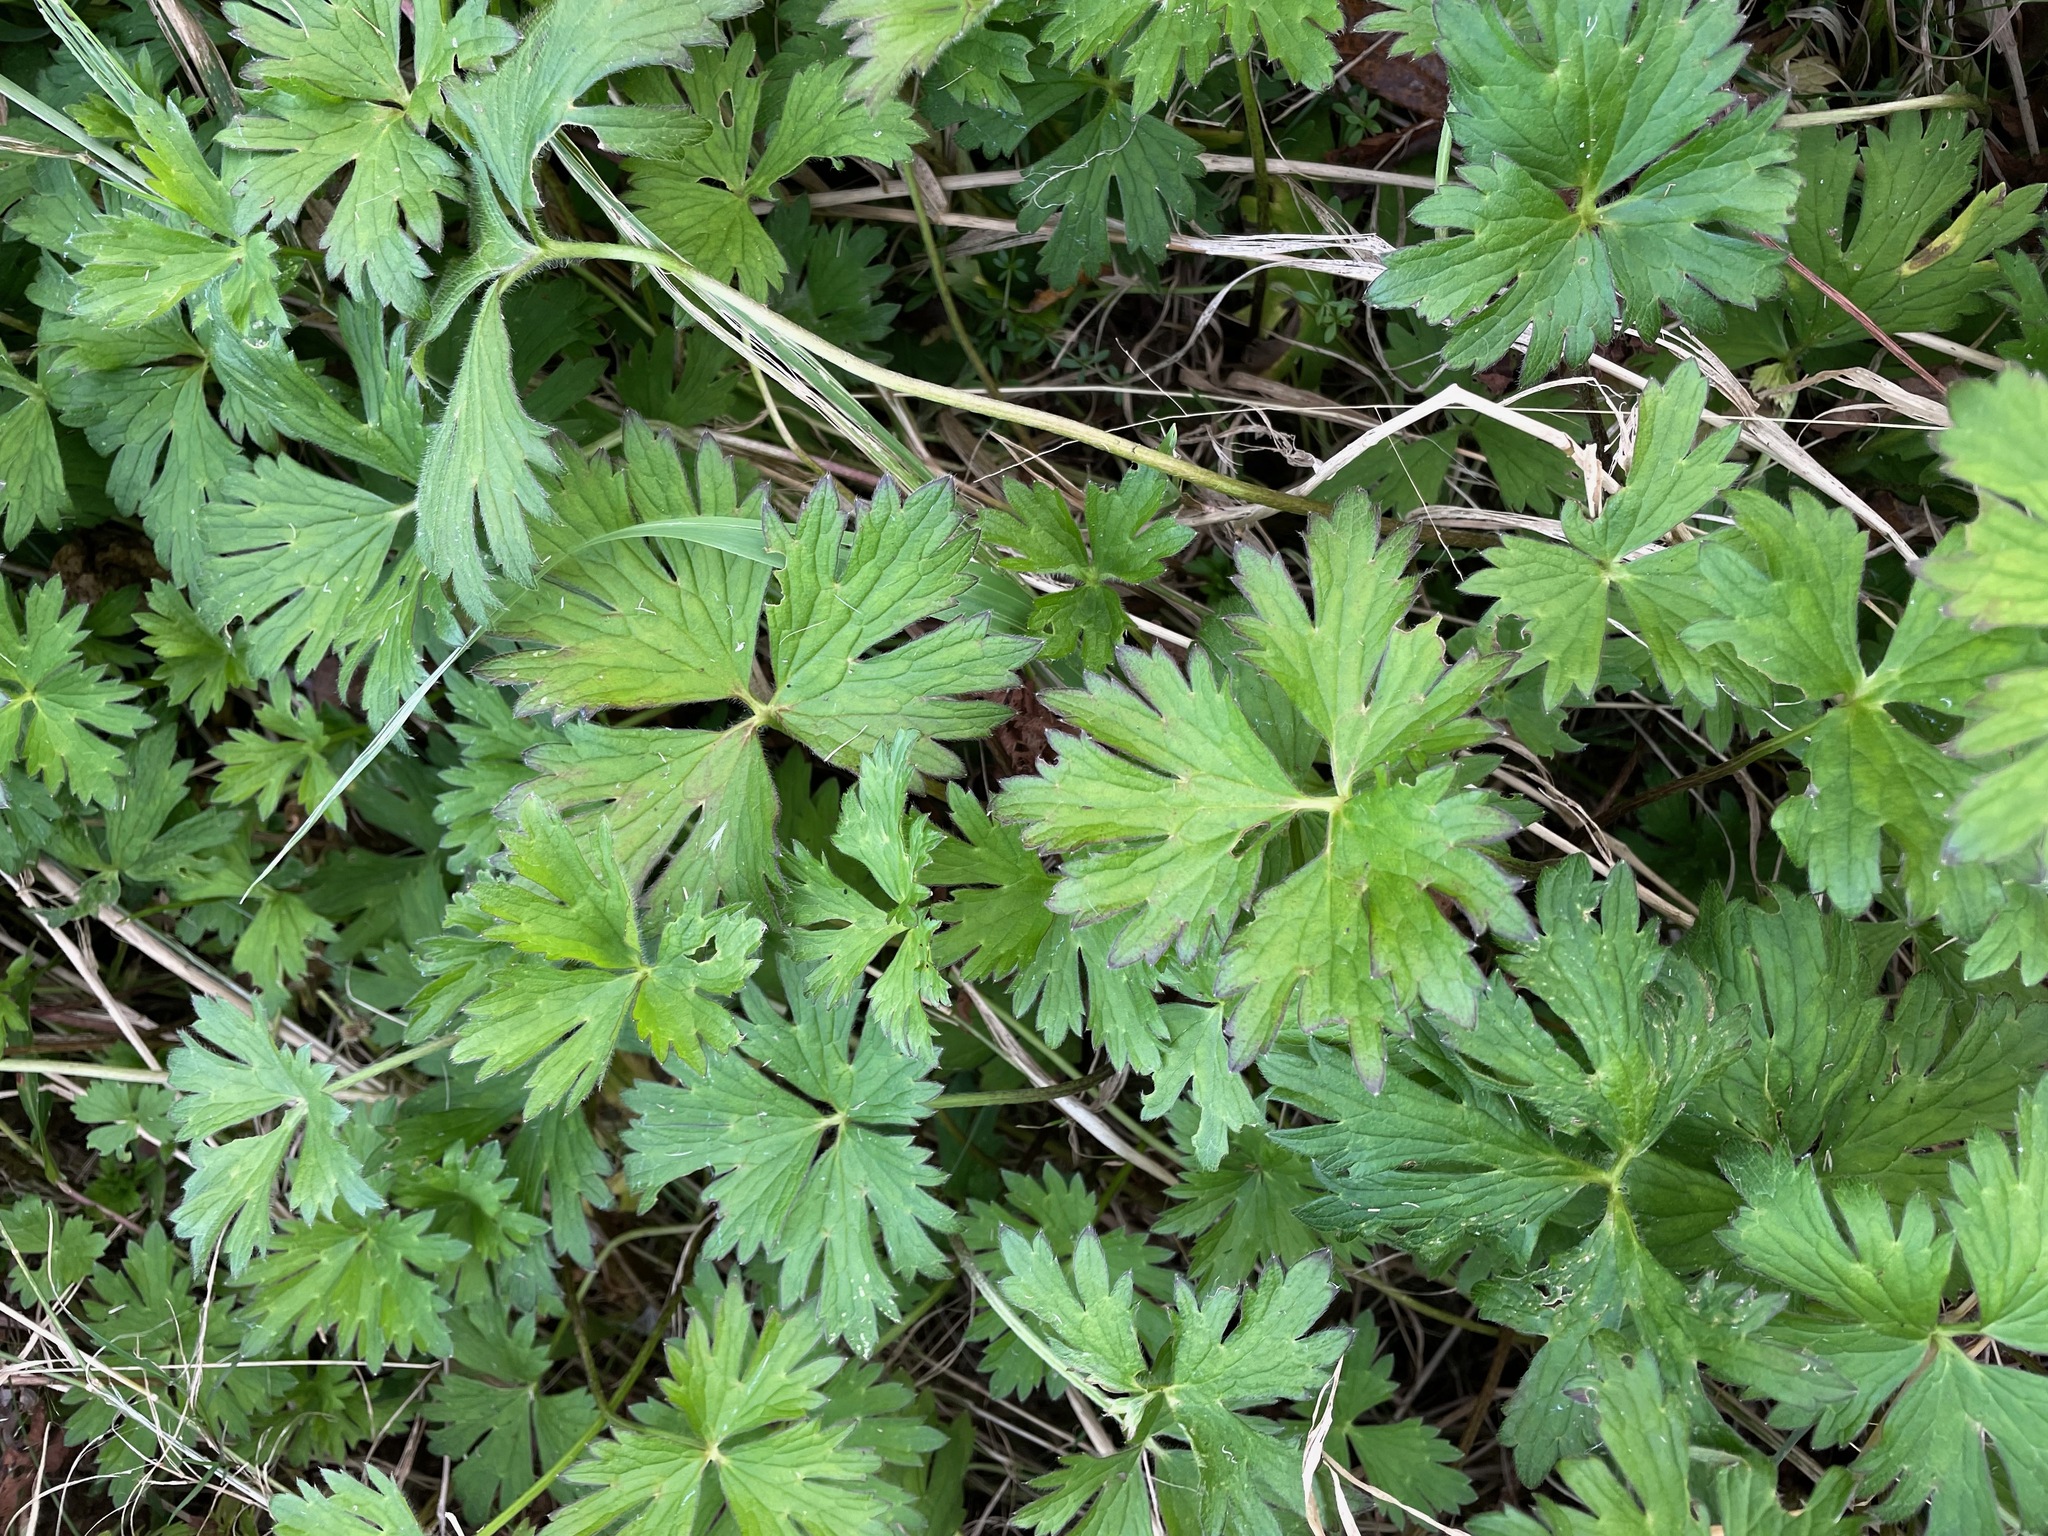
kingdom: Plantae
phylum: Tracheophyta
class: Magnoliopsida
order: Ranunculales
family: Ranunculaceae
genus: Ranunculus
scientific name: Ranunculus repens
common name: Creeping buttercup
